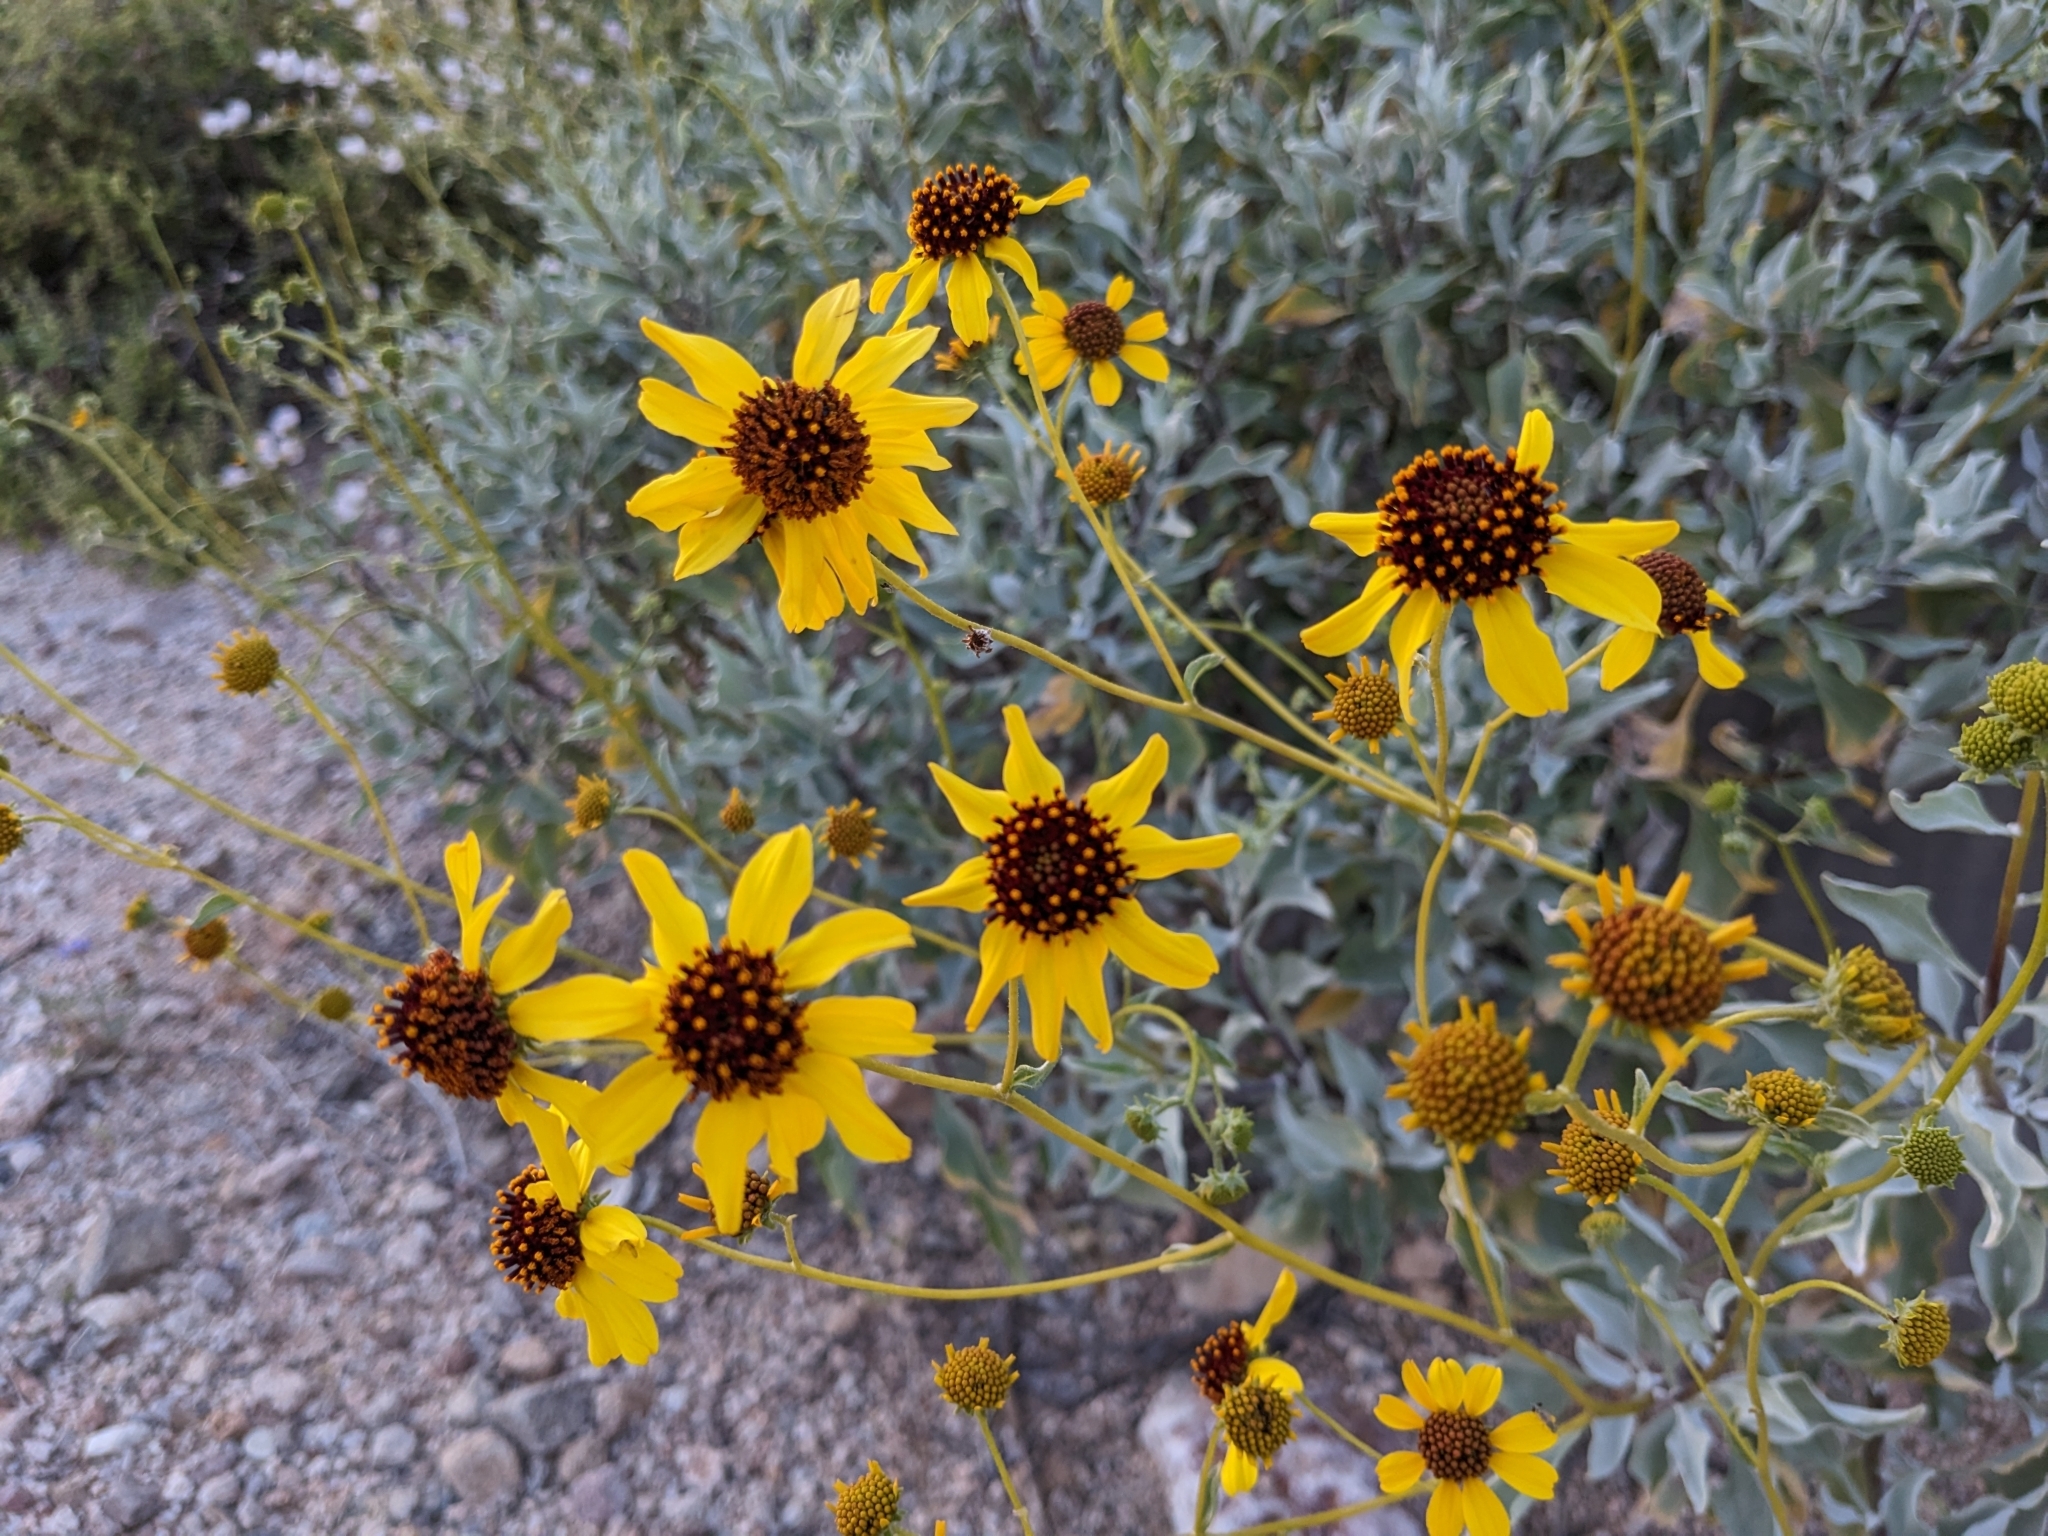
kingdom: Plantae
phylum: Tracheophyta
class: Magnoliopsida
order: Asterales
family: Asteraceae
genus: Encelia
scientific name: Encelia farinosa
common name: Brittlebush
